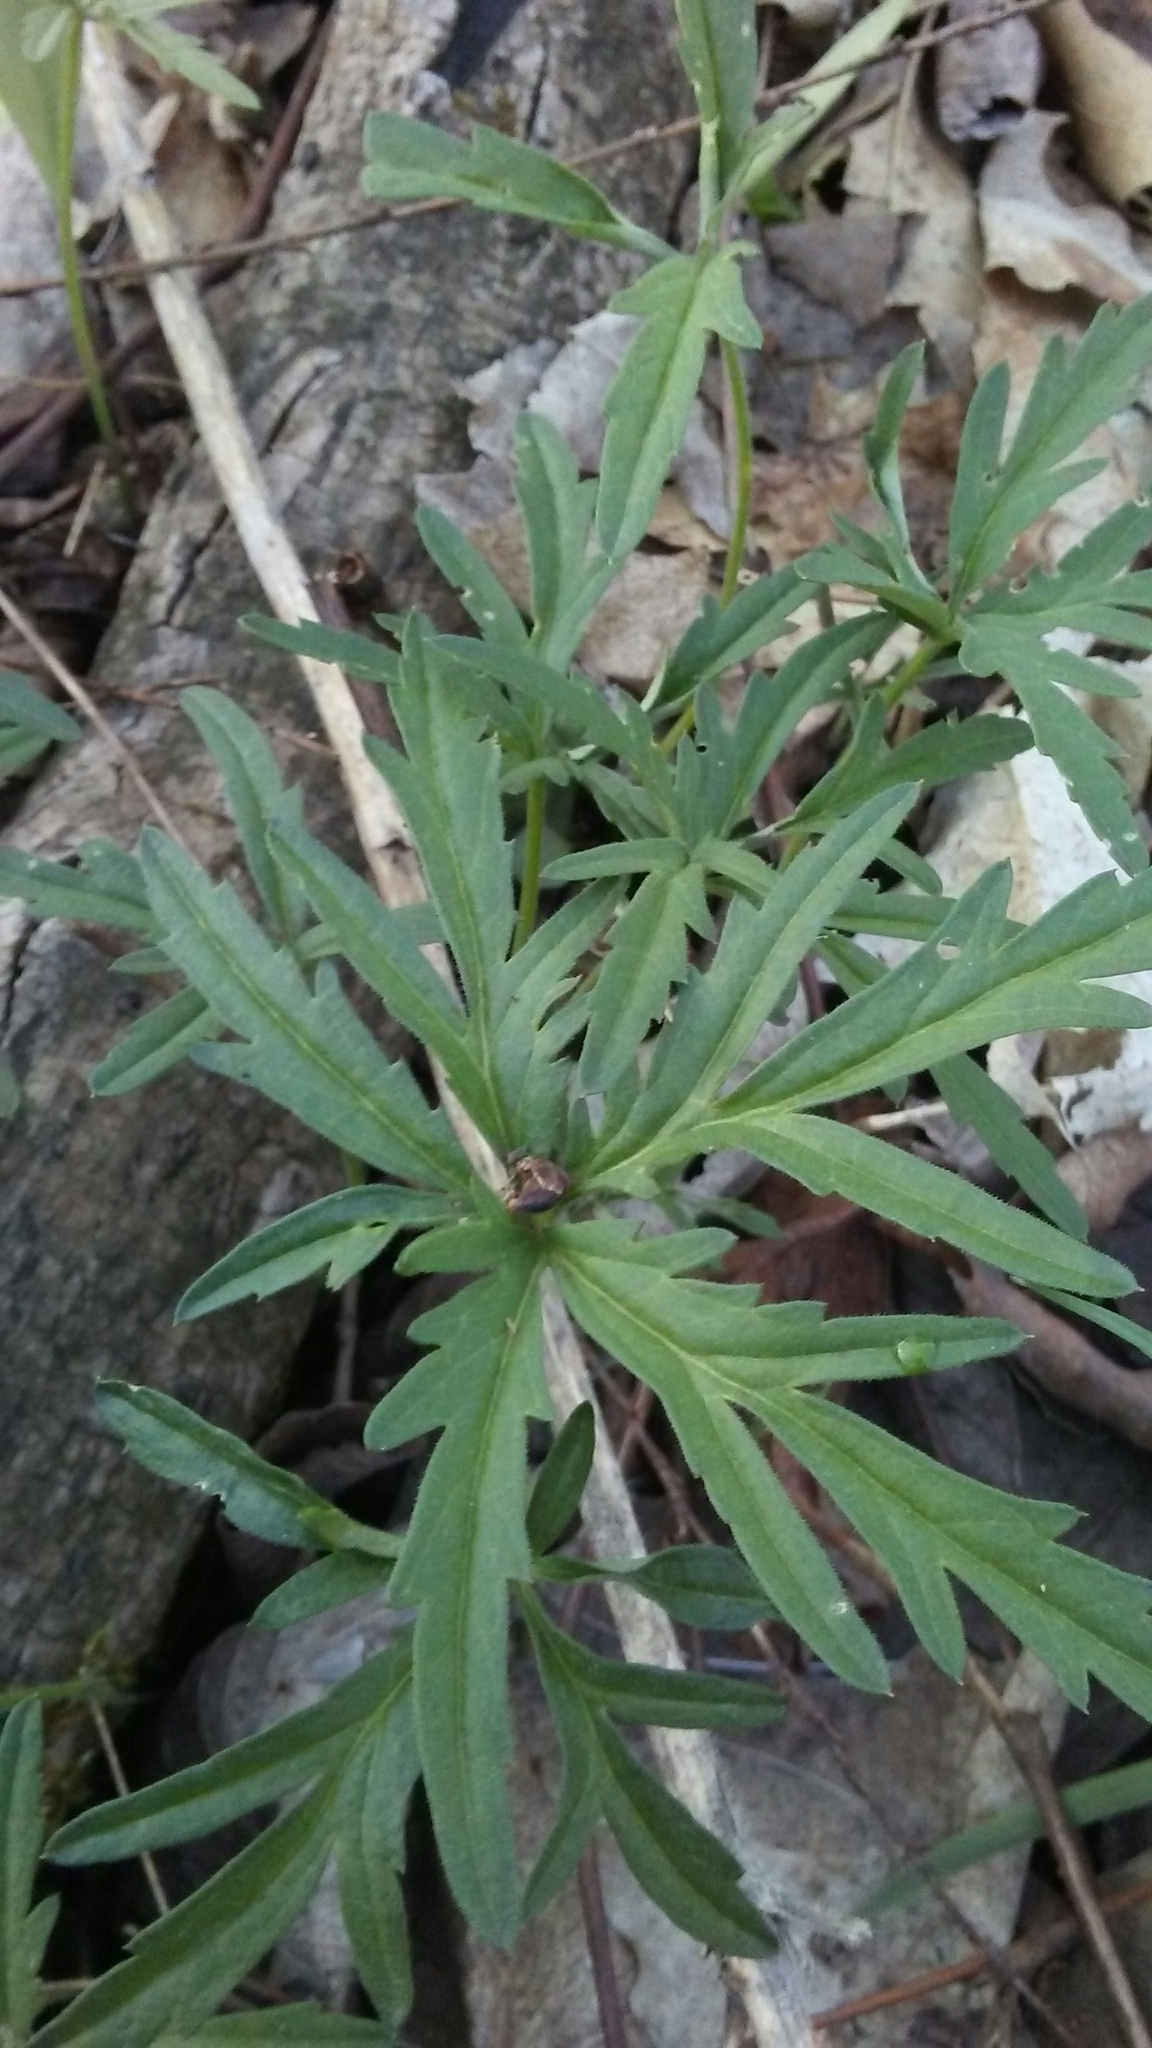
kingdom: Plantae
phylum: Tracheophyta
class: Magnoliopsida
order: Brassicales
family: Brassicaceae
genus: Cardamine
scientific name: Cardamine concatenata
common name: Cut-leaf toothcup
